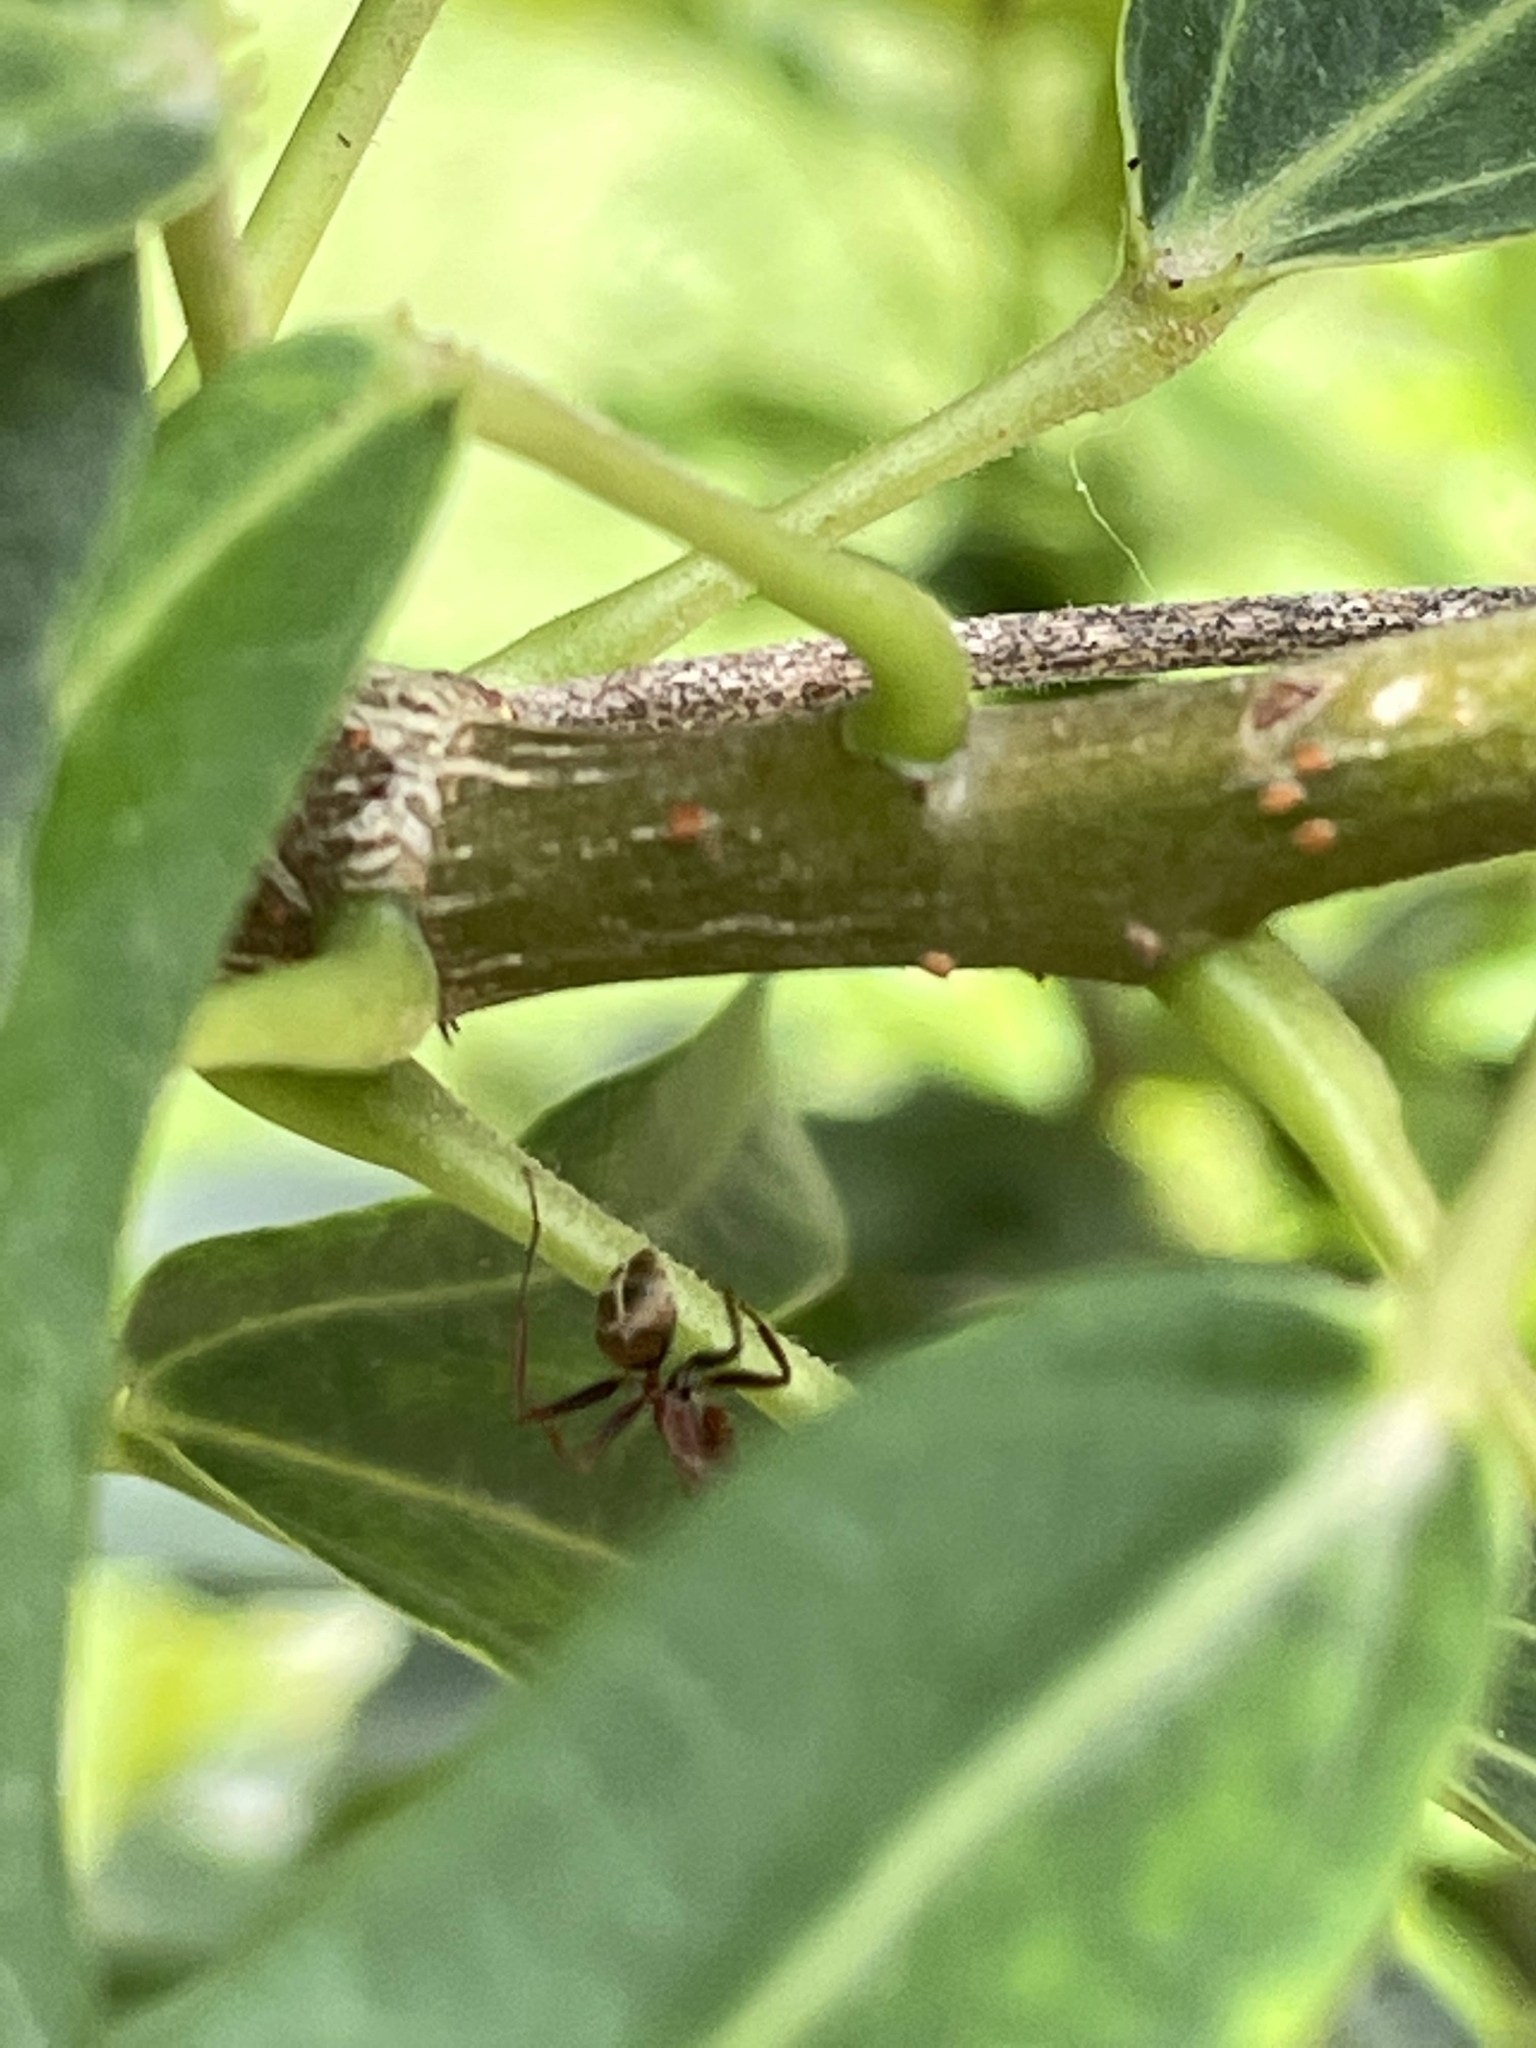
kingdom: Animalia
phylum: Arthropoda
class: Insecta
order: Hymenoptera
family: Formicidae
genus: Camponotus
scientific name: Camponotus rufoglaucus
